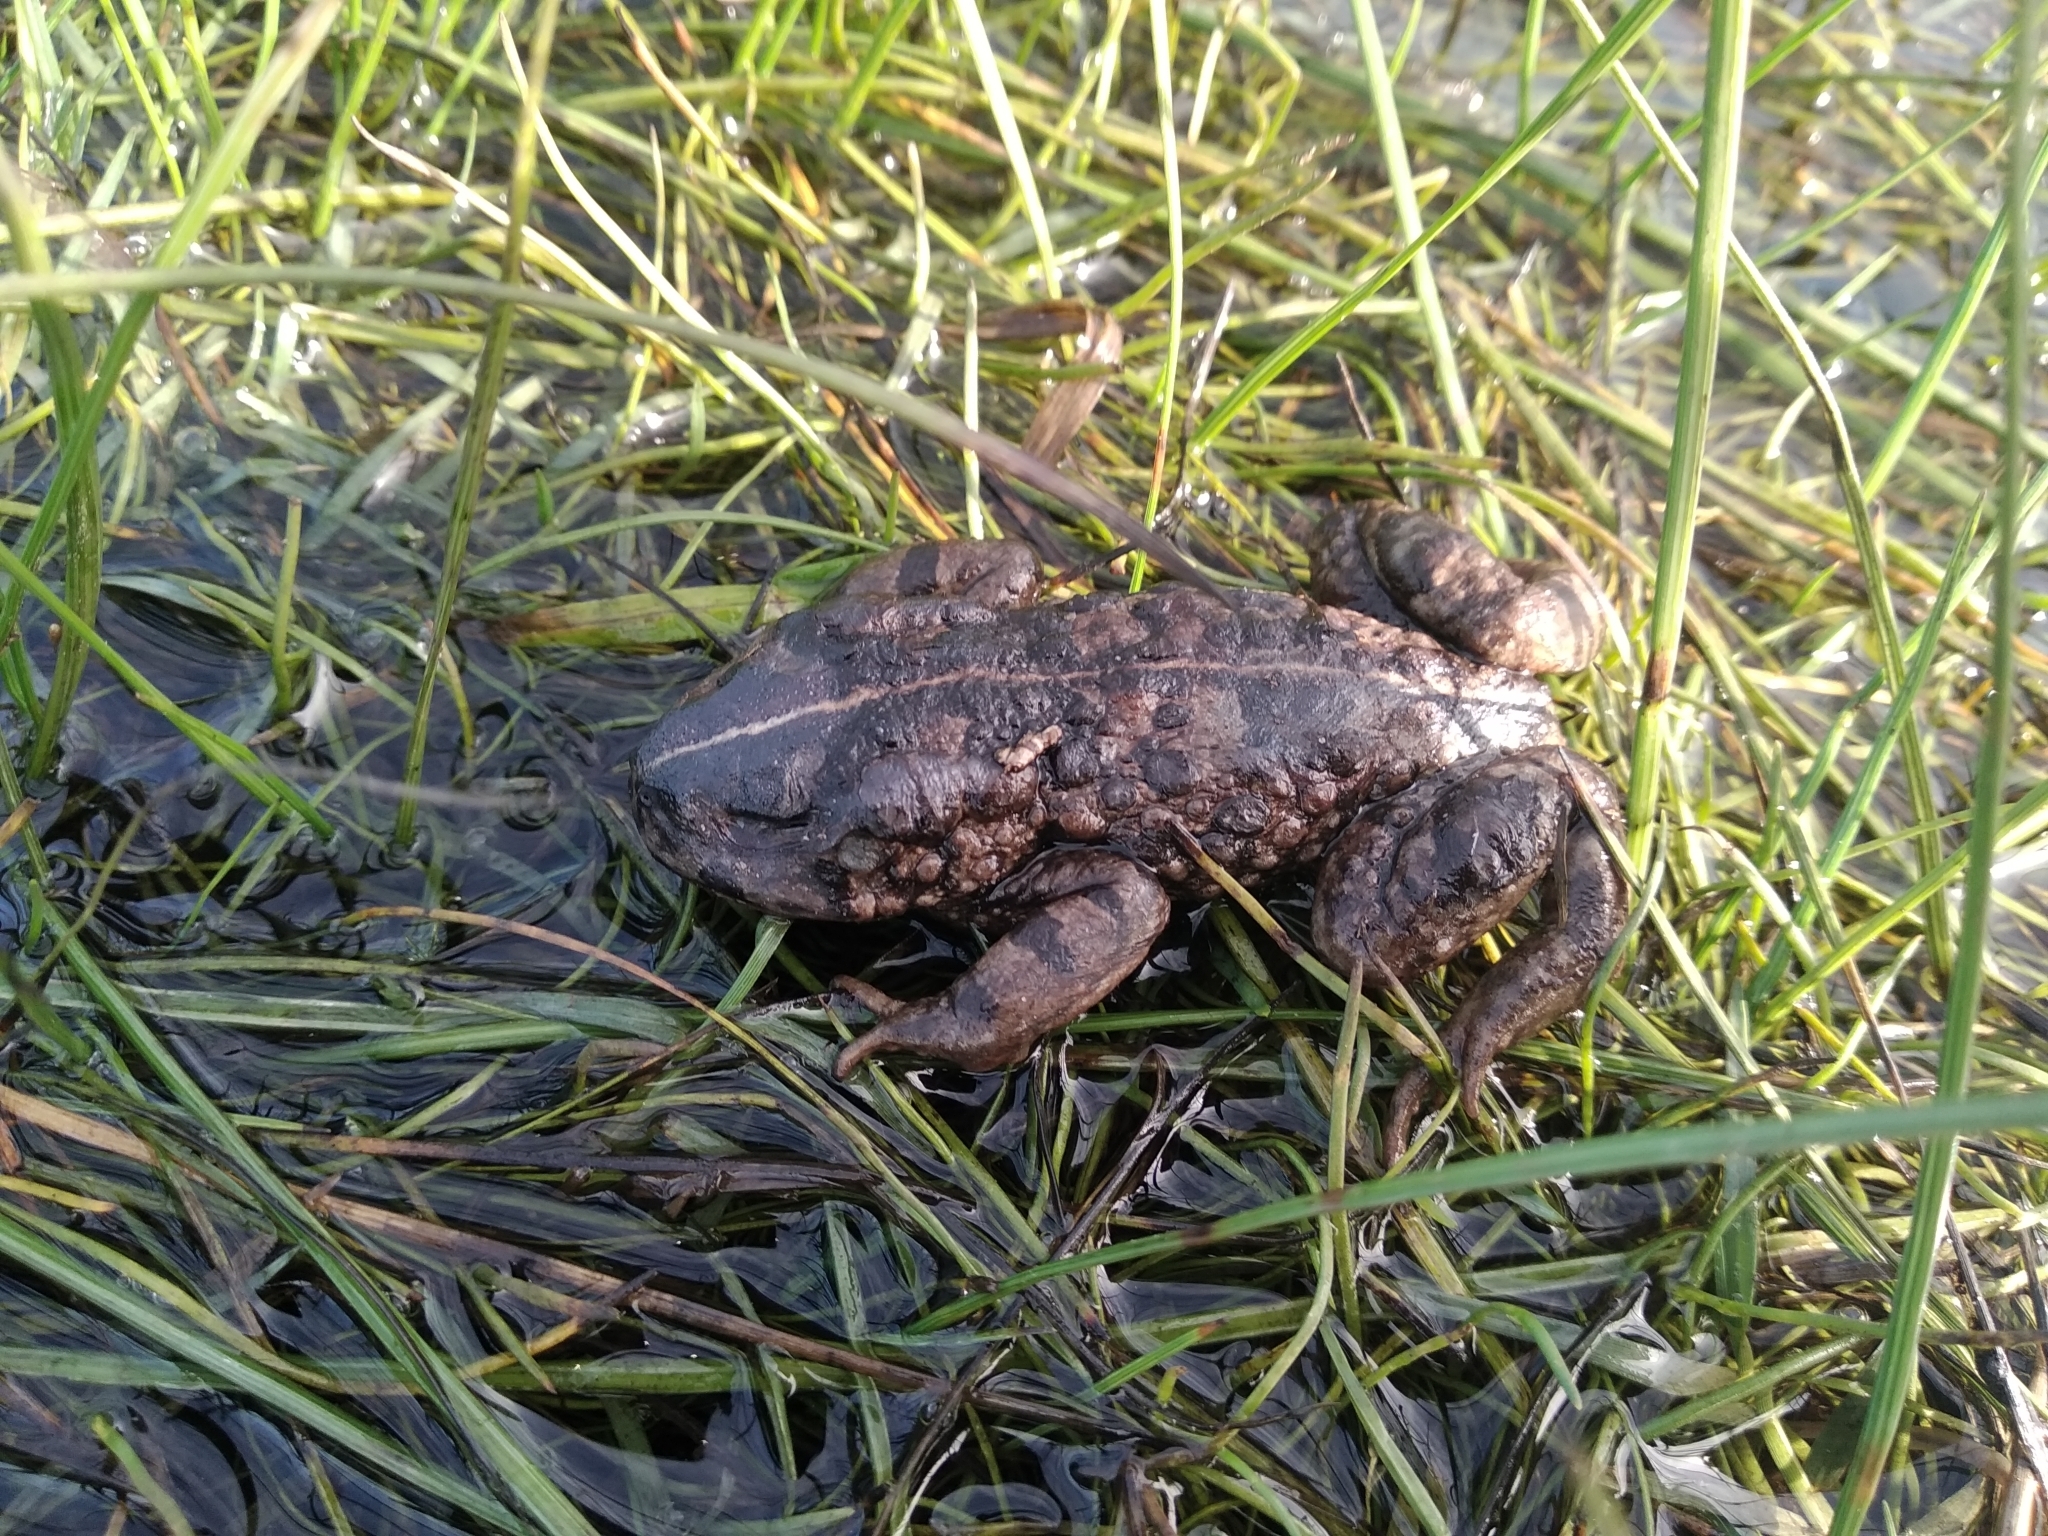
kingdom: Animalia
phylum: Chordata
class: Amphibia
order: Anura
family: Bufonidae
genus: Vandijkophrynus
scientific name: Vandijkophrynus angusticeps
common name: Sand toad
